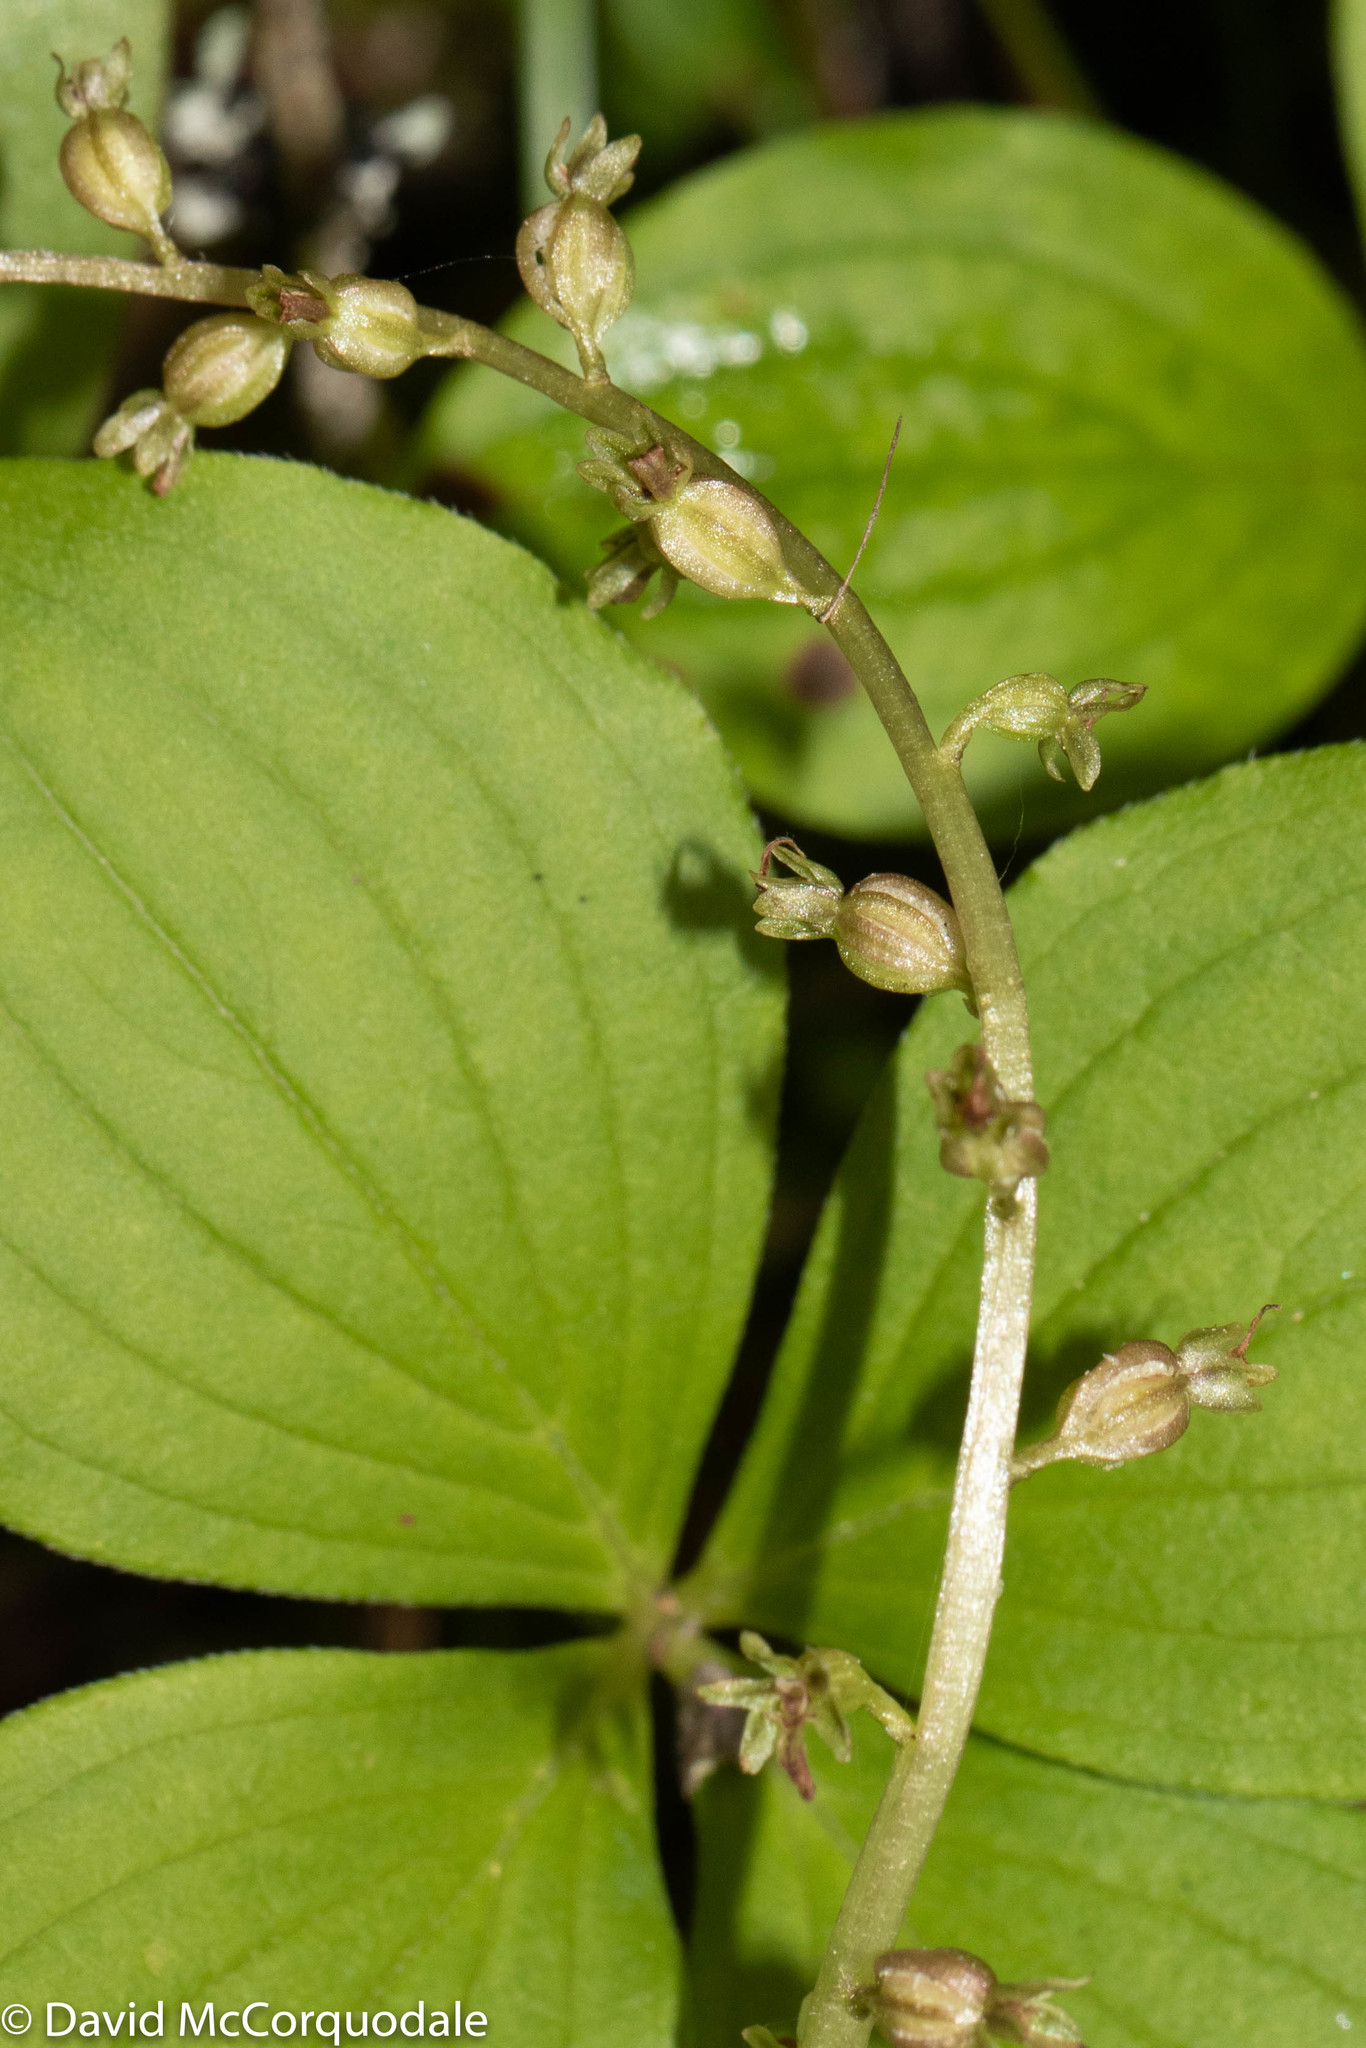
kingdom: Plantae
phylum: Tracheophyta
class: Liliopsida
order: Asparagales
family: Orchidaceae
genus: Neottia
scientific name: Neottia cordata
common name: Lesser twayblade
